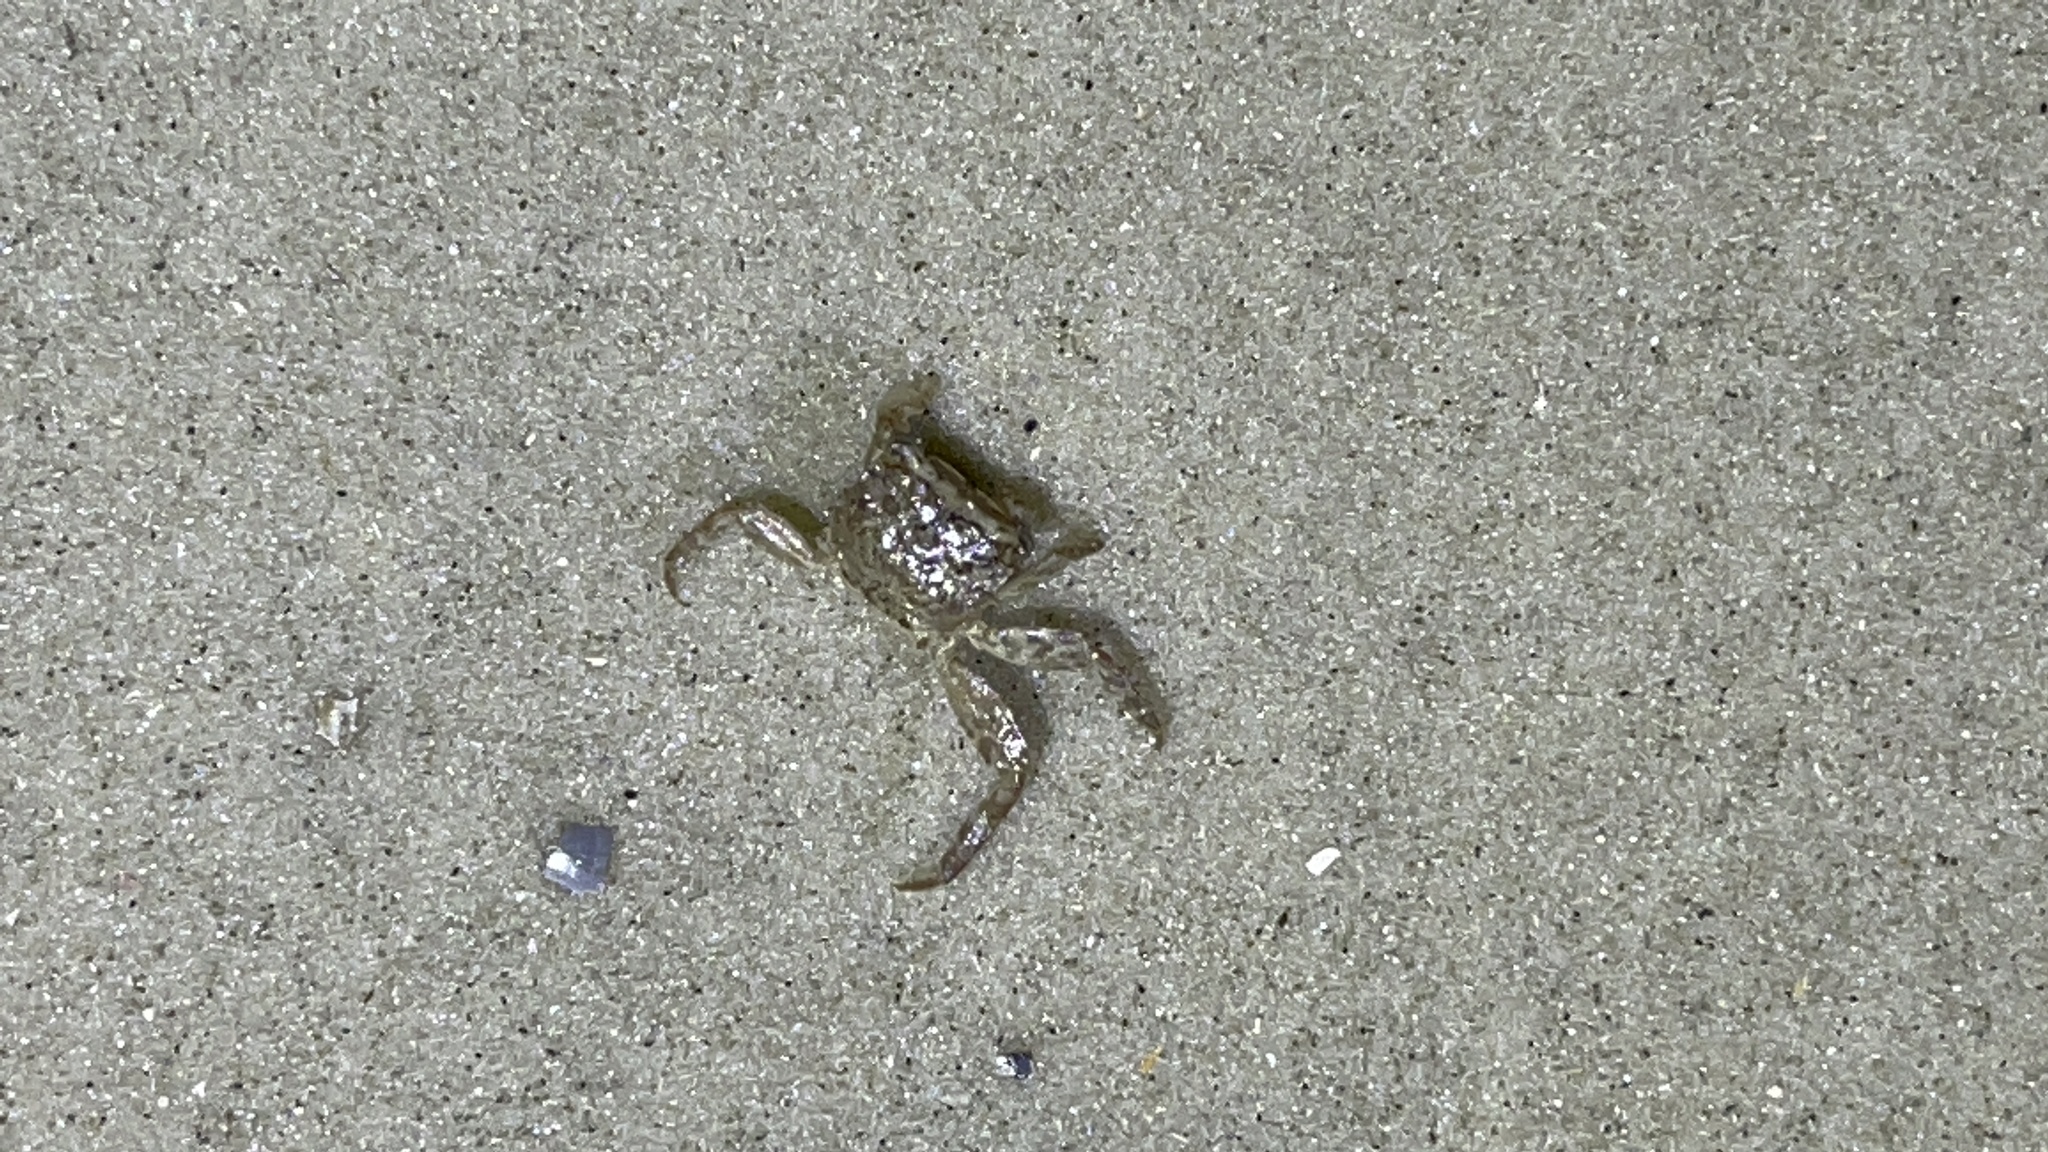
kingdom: Animalia
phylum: Arthropoda
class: Malacostraca
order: Decapoda
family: Sesarmidae
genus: Armases
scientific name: Armases cinereum
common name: Squareback marsh crab
